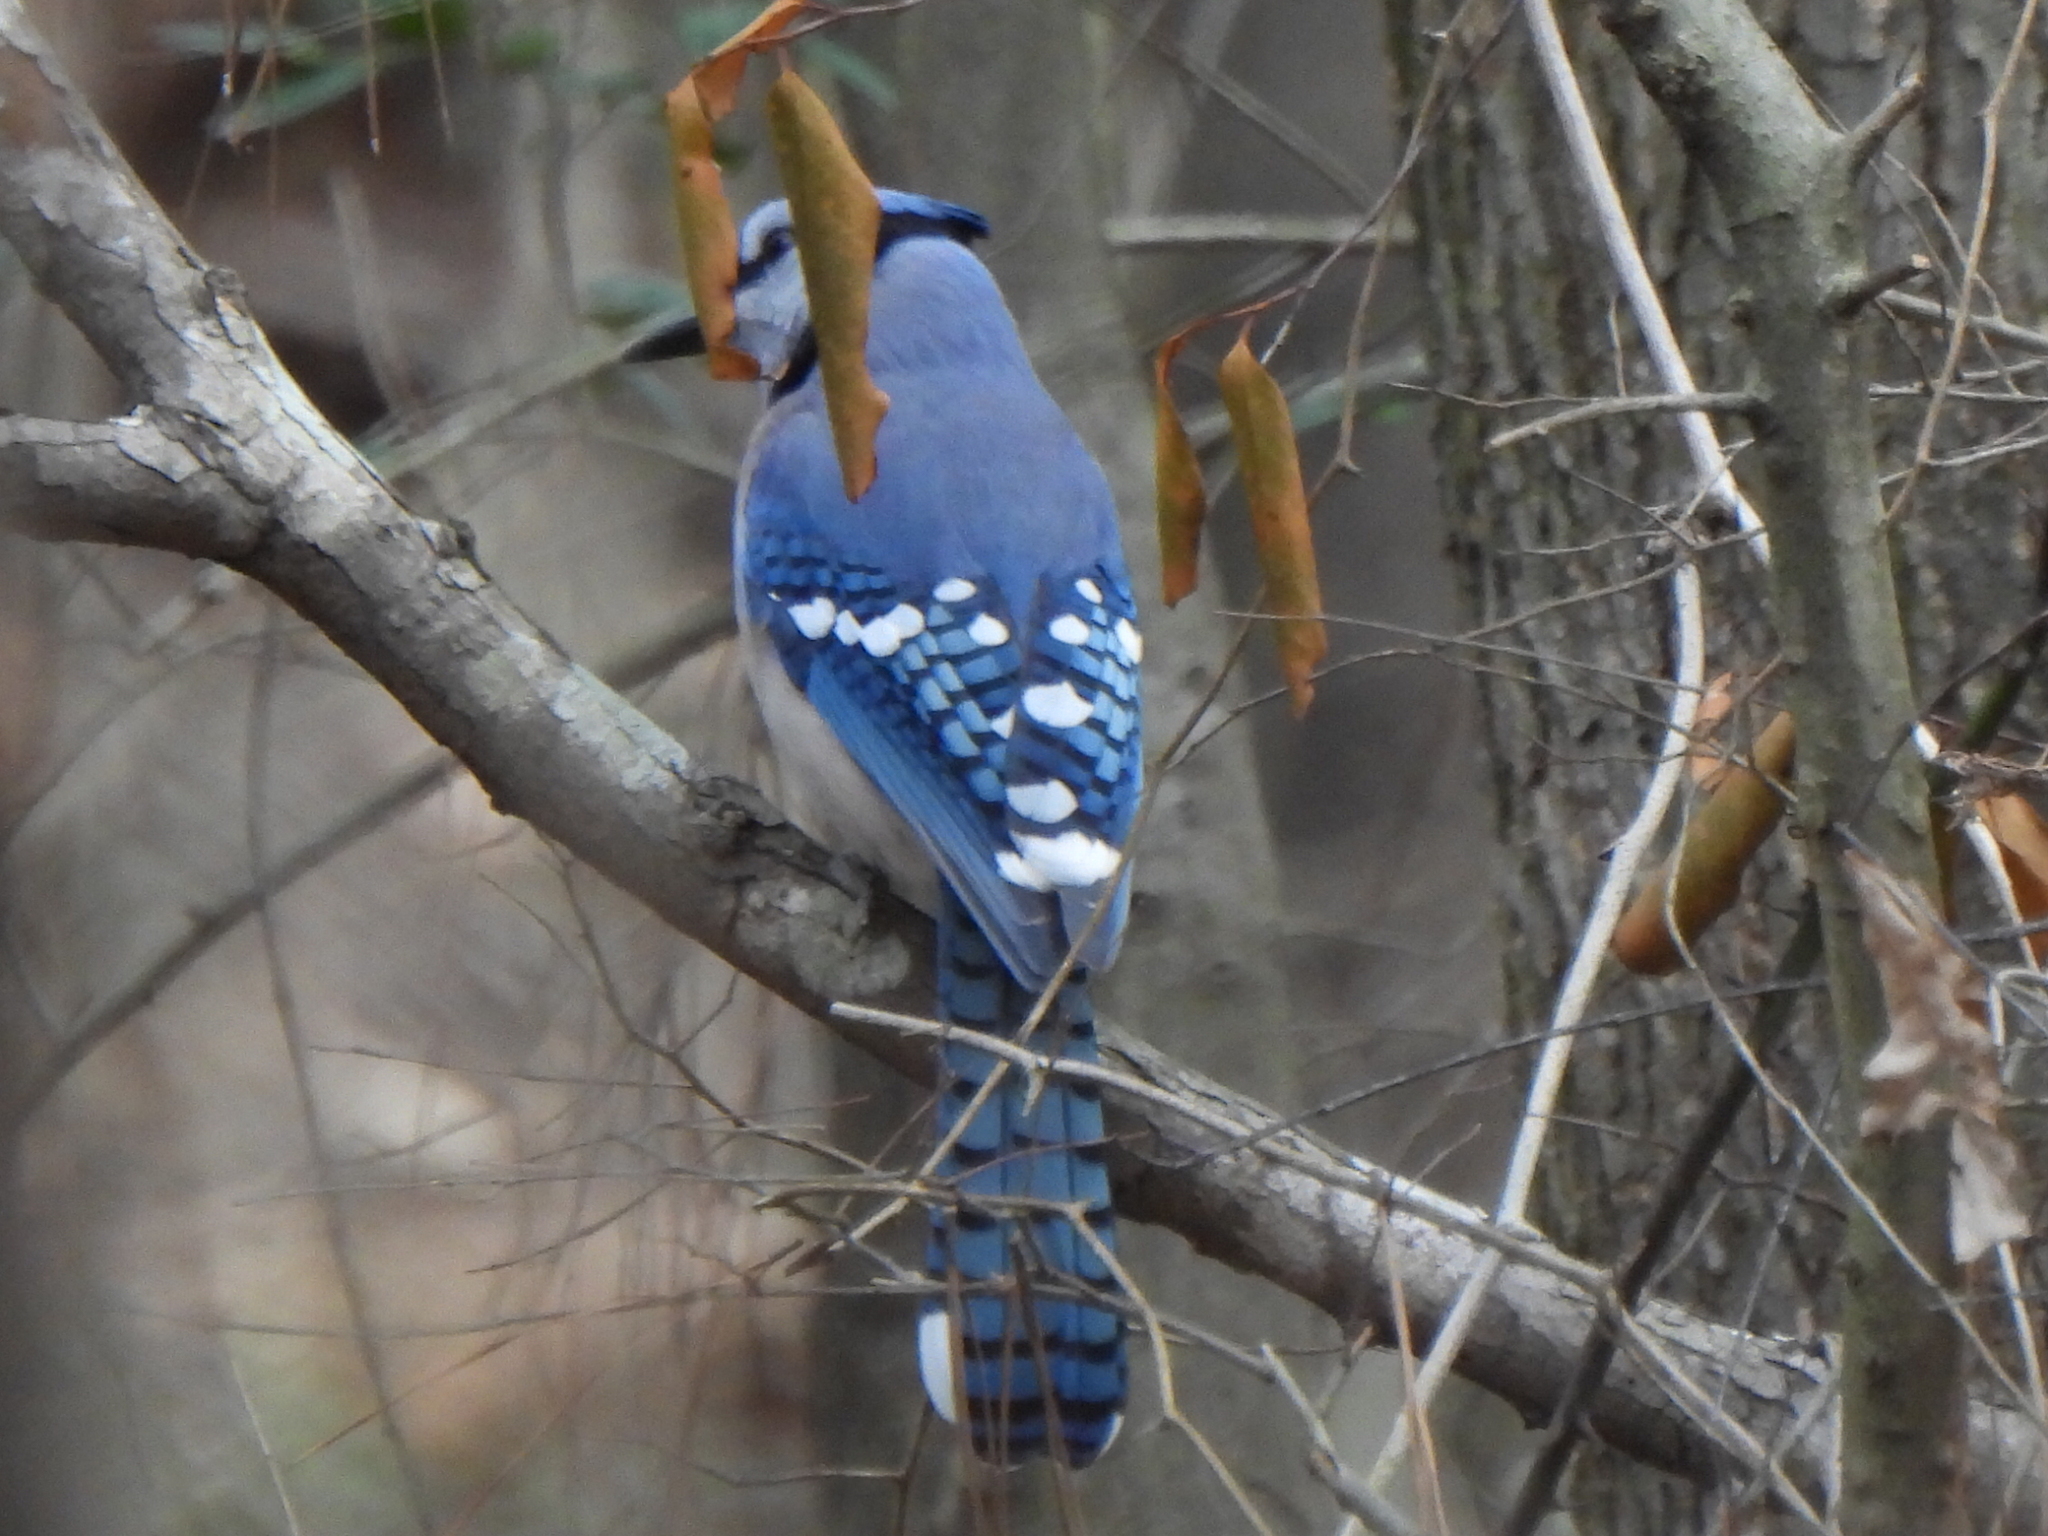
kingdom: Animalia
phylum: Chordata
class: Aves
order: Passeriformes
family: Corvidae
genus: Cyanocitta
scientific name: Cyanocitta cristata
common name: Blue jay
